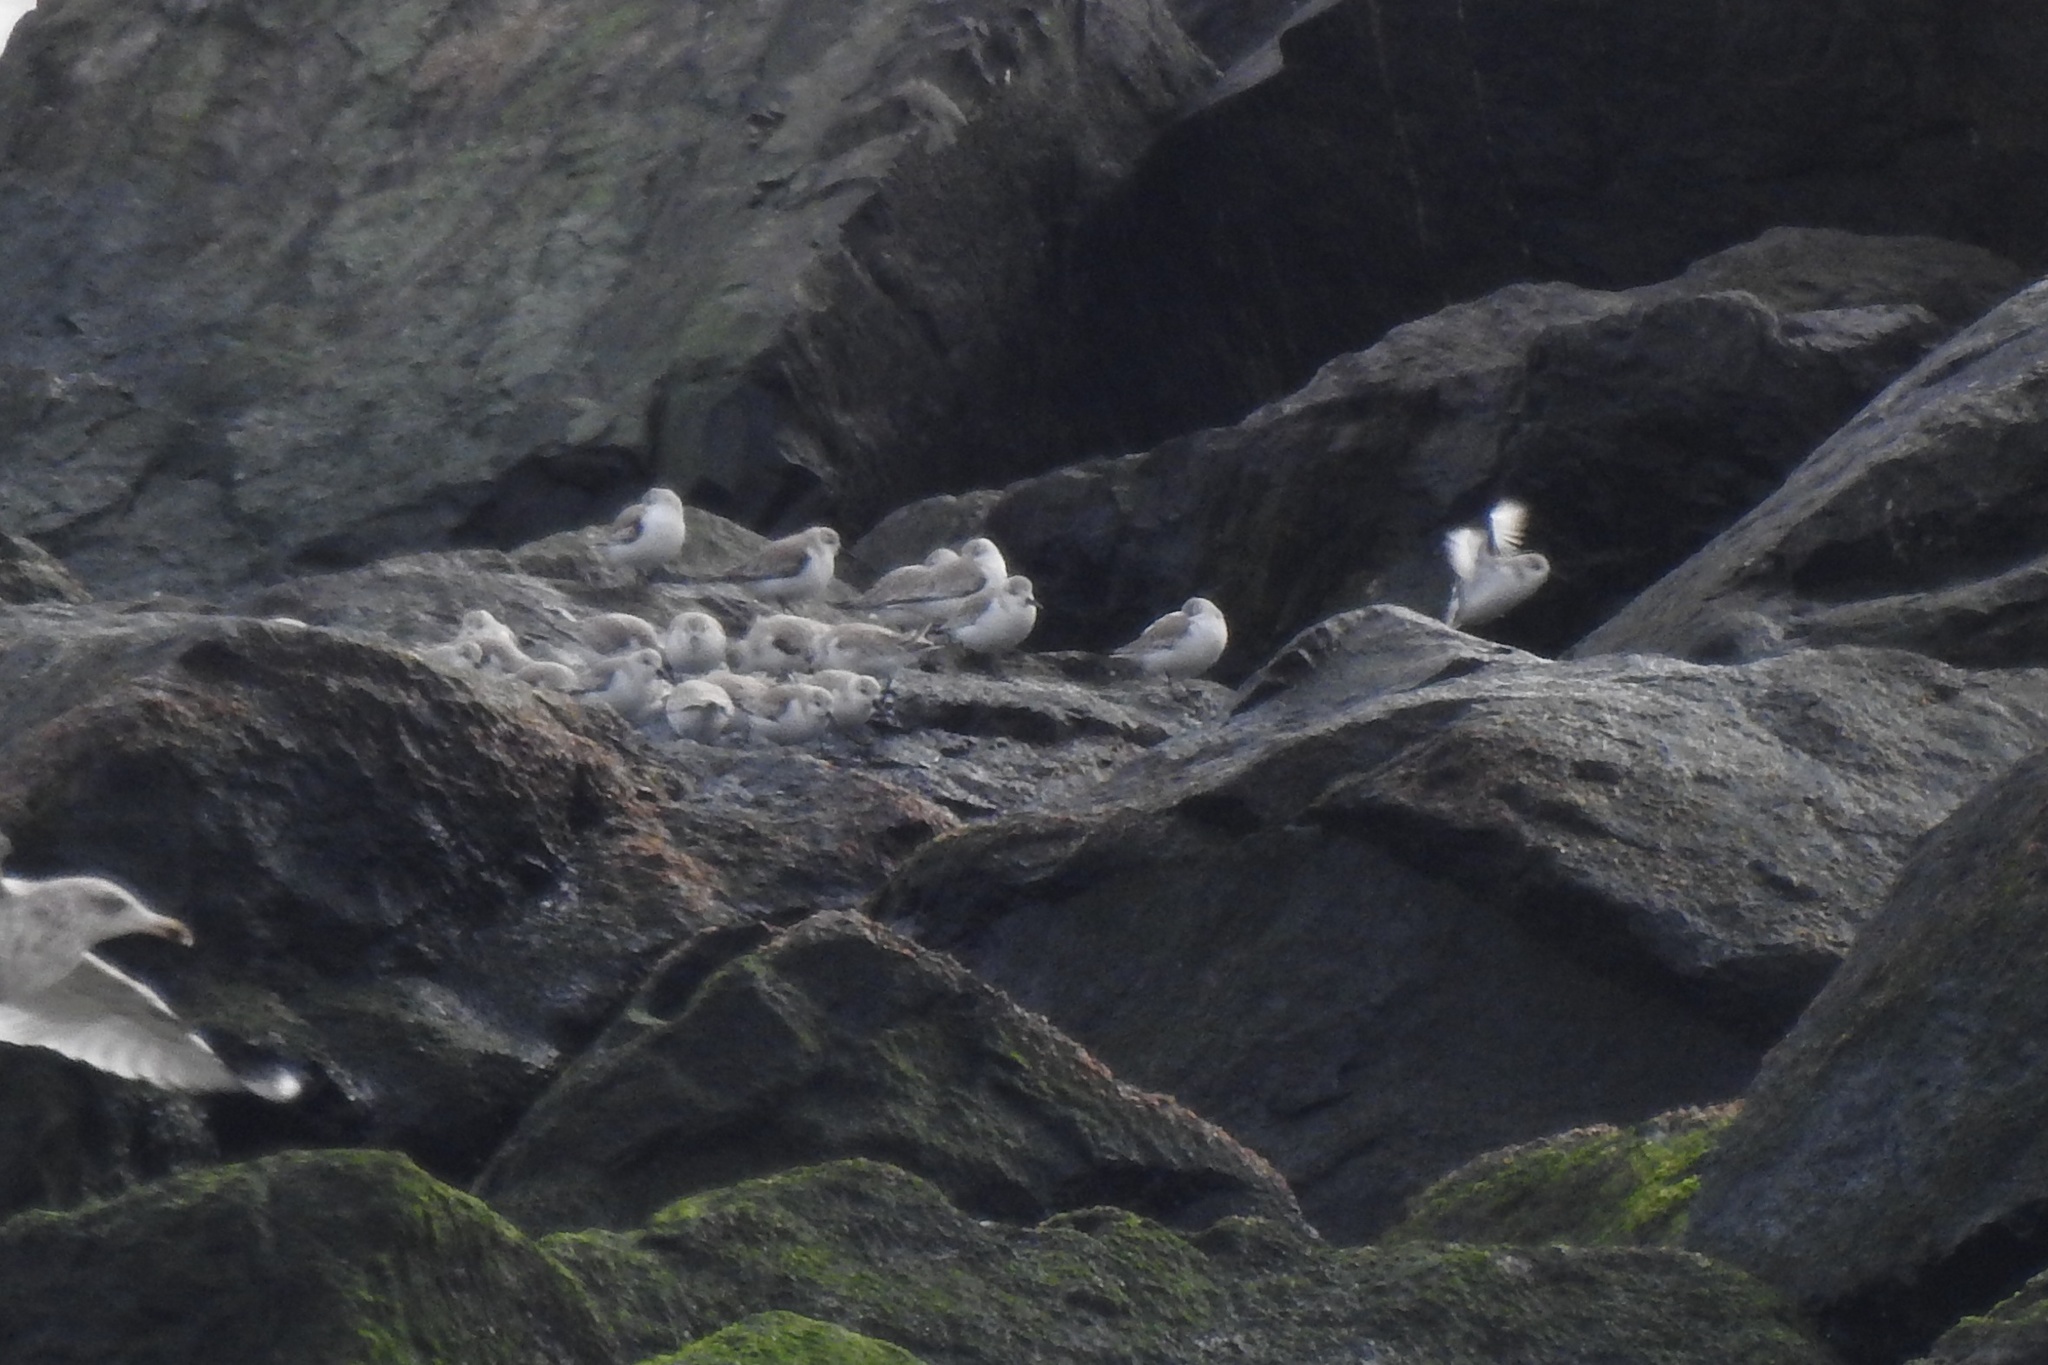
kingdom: Animalia
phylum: Chordata
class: Aves
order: Charadriiformes
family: Scolopacidae
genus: Calidris
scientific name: Calidris alba
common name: Sanderling
